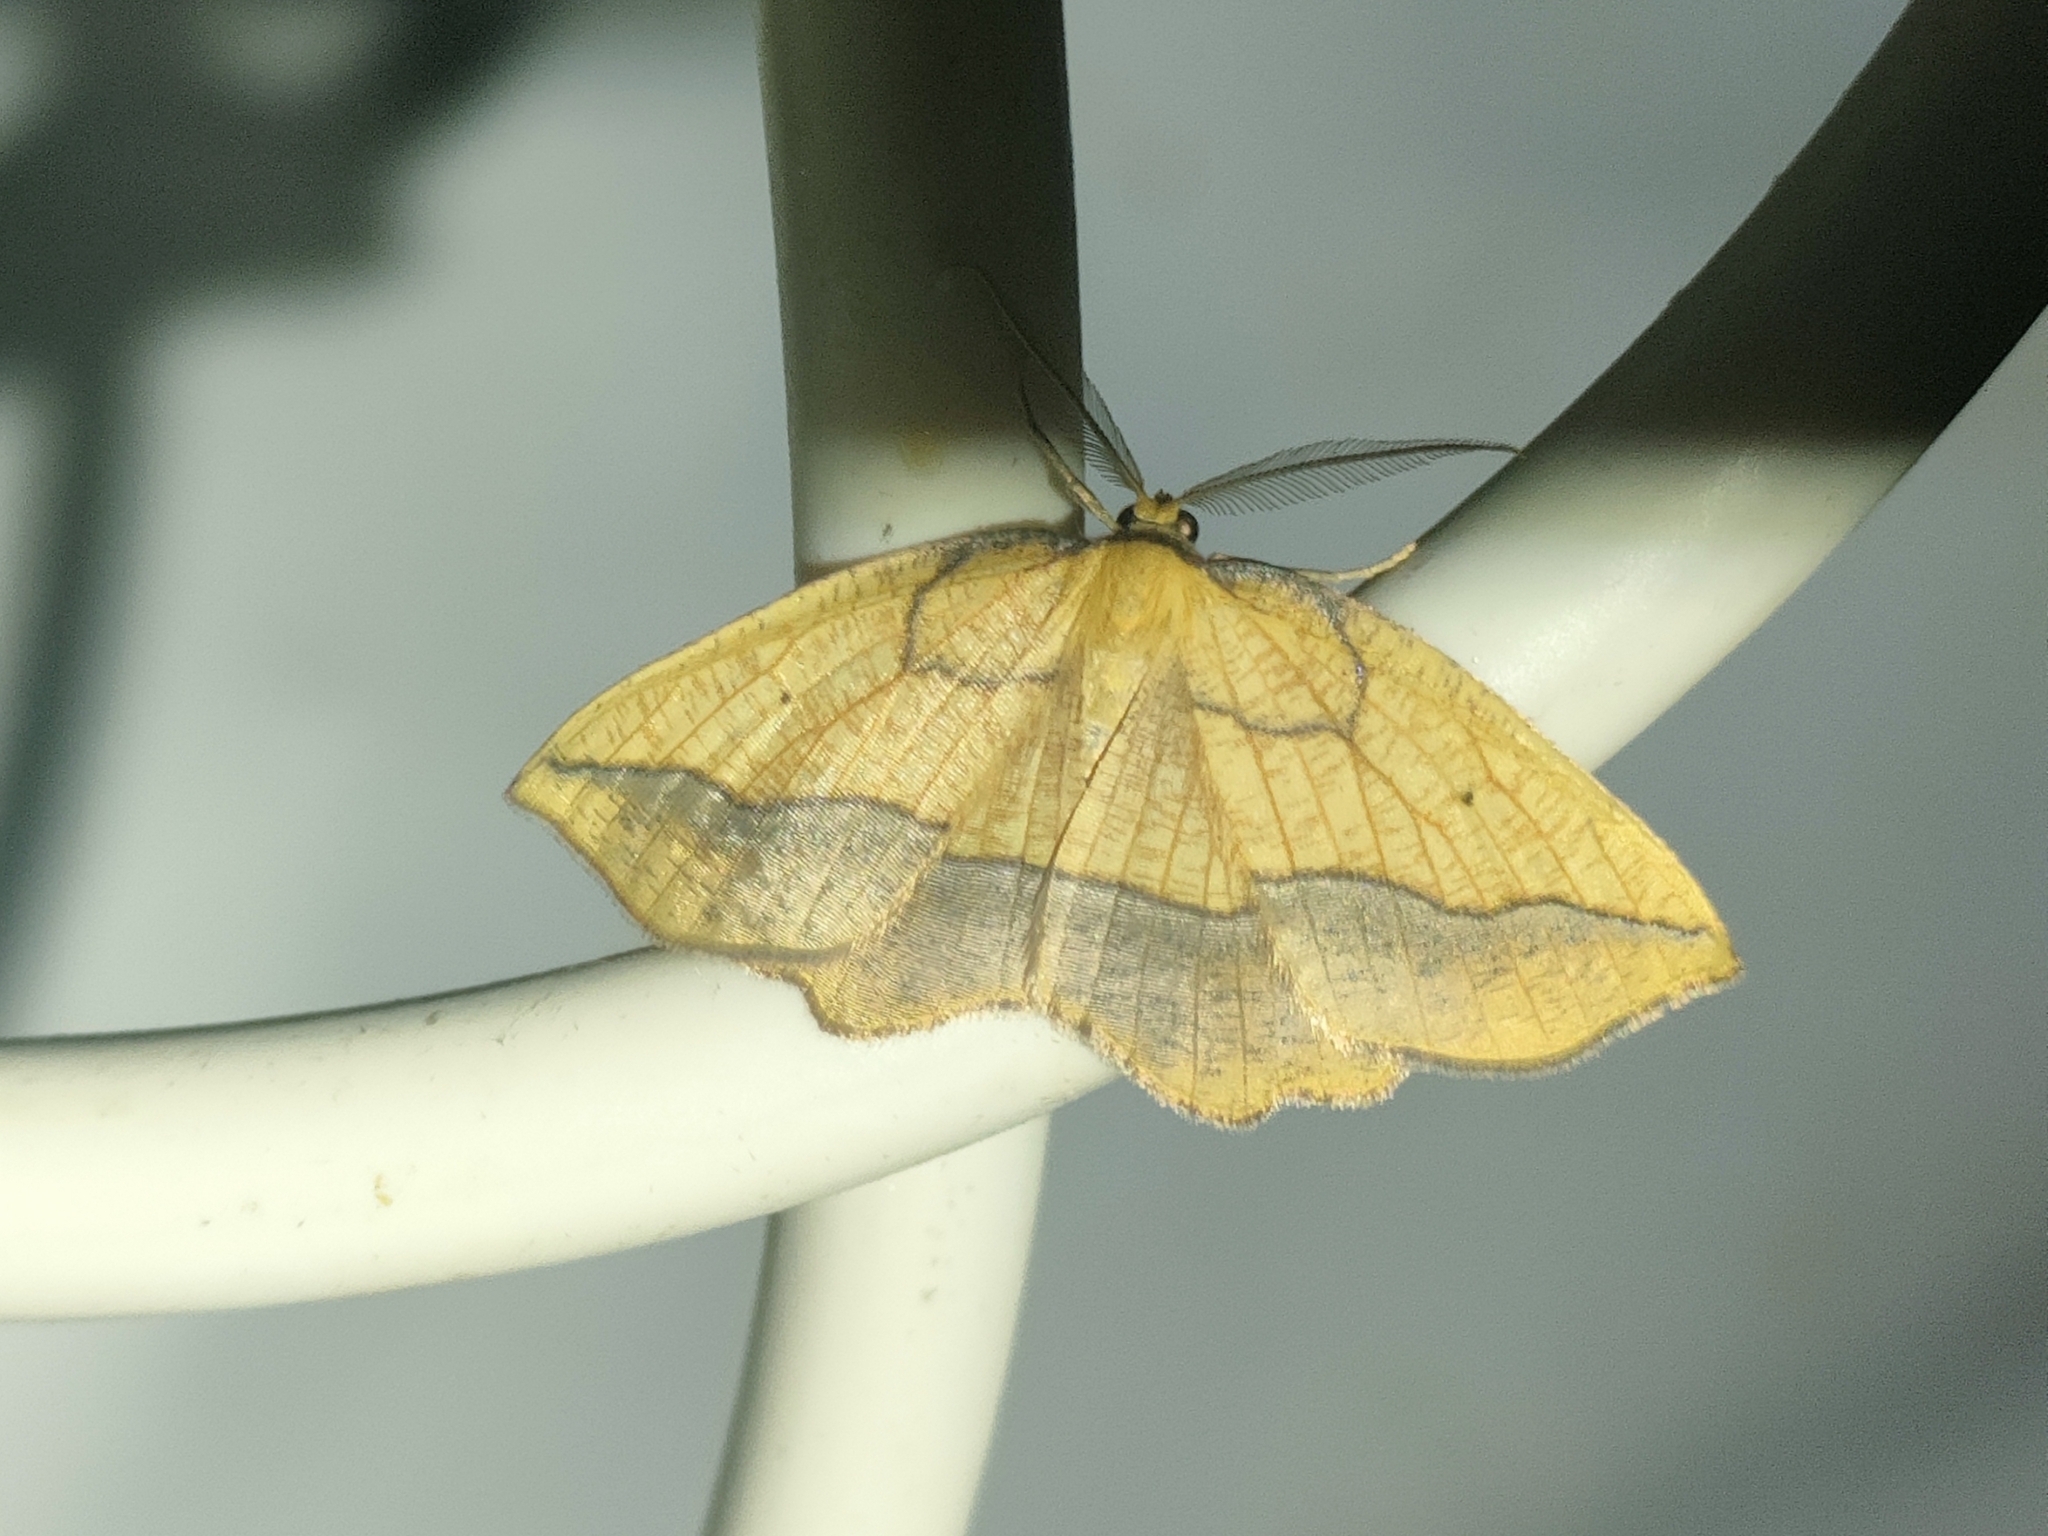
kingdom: Animalia
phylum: Arthropoda
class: Insecta
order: Lepidoptera
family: Geometridae
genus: Epione
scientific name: Epione repandaria
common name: Bordered beauty
